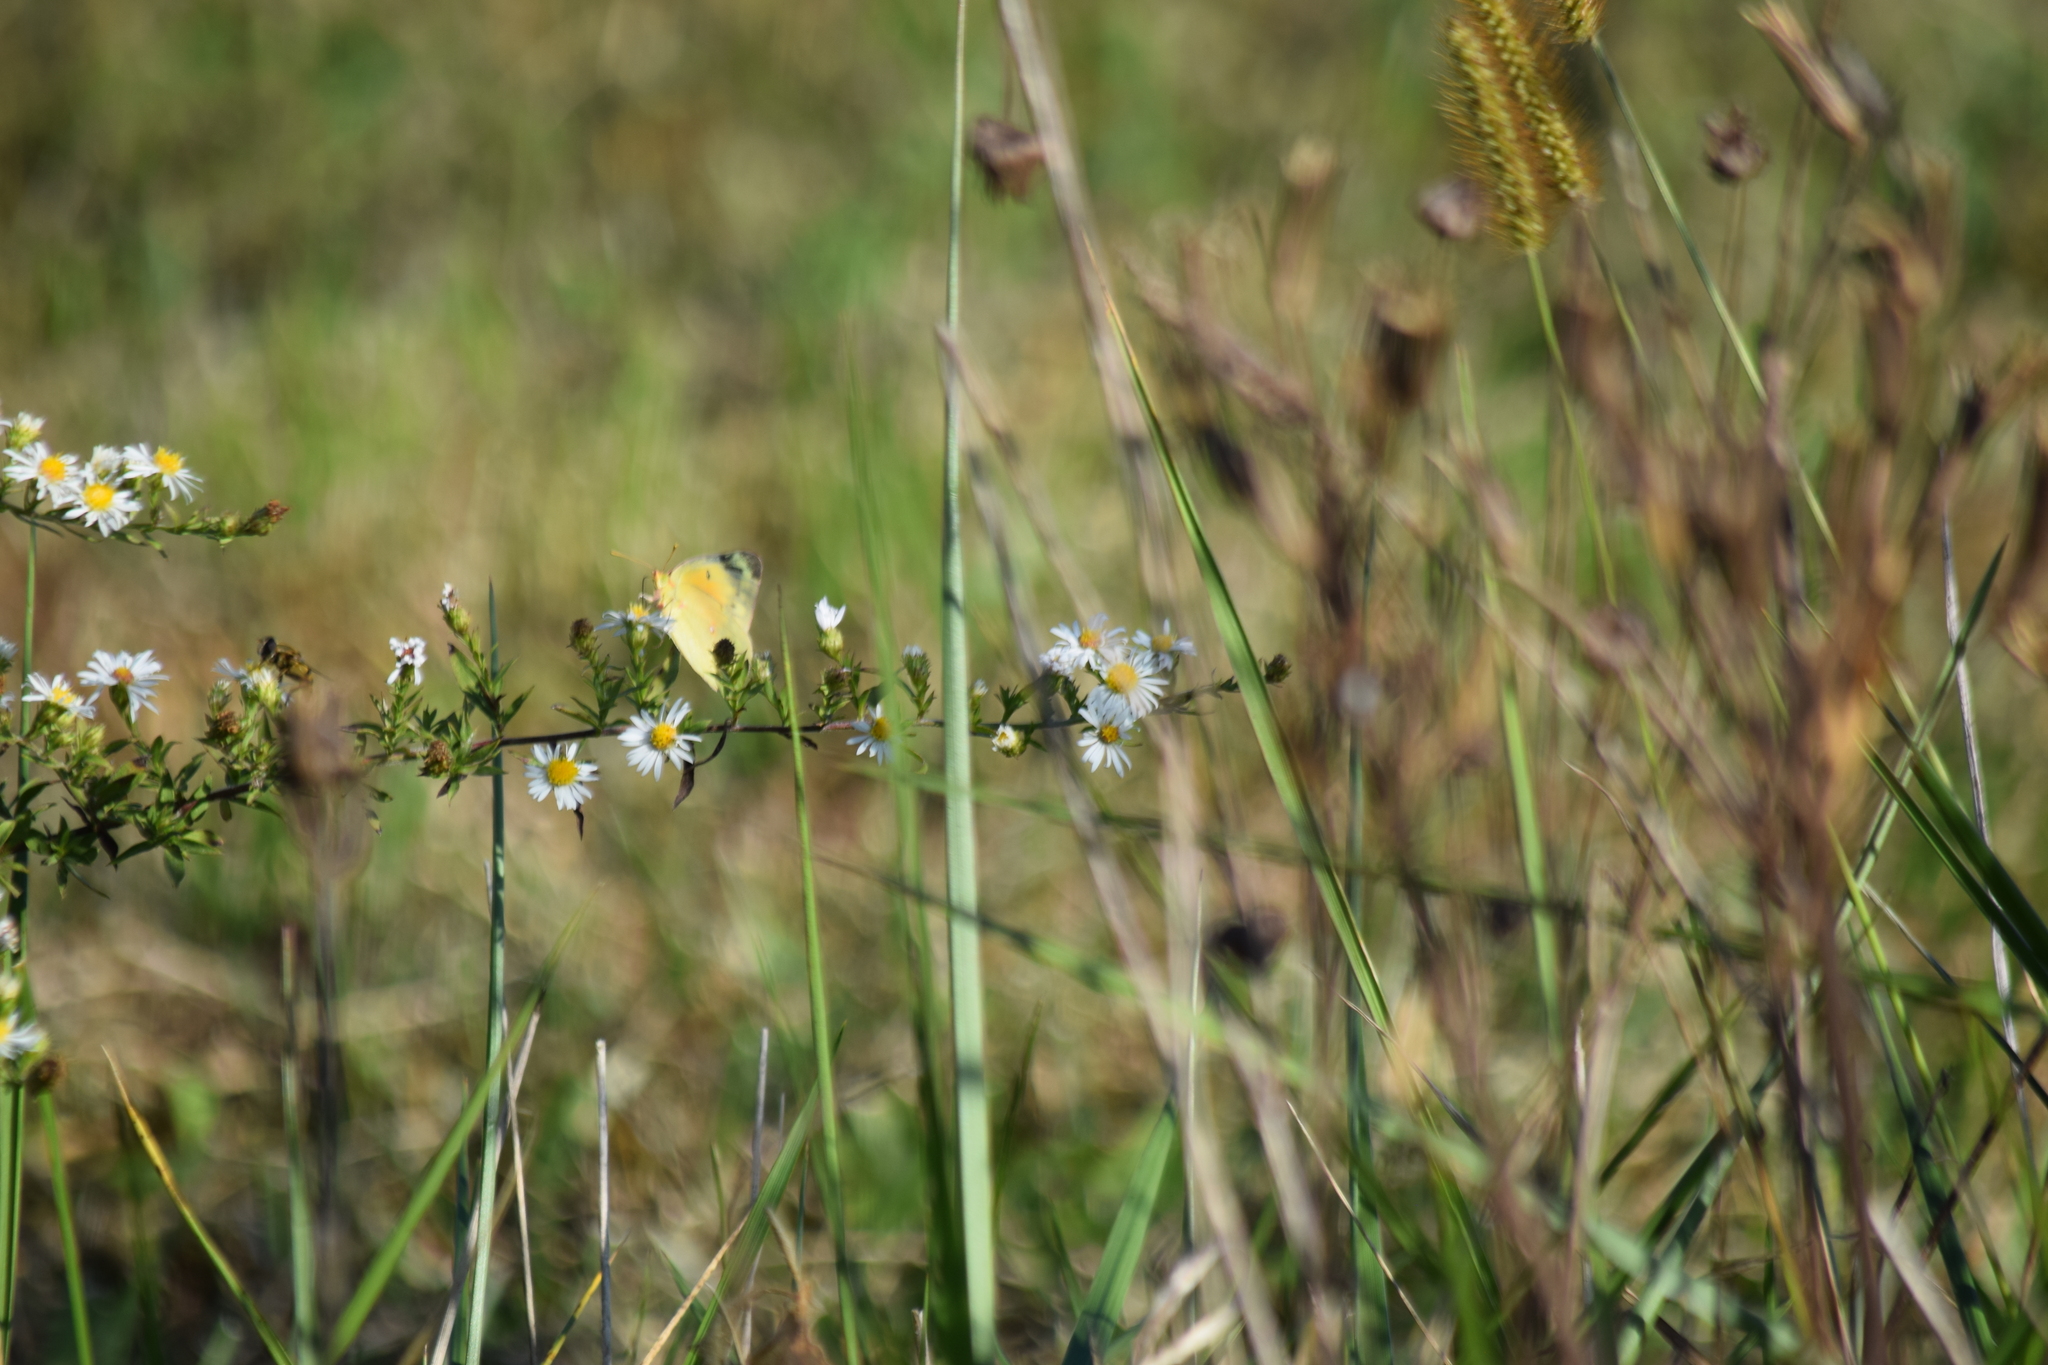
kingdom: Animalia
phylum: Arthropoda
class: Insecta
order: Lepidoptera
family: Pieridae
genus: Colias
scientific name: Colias eurytheme
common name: Alfalfa butterfly
